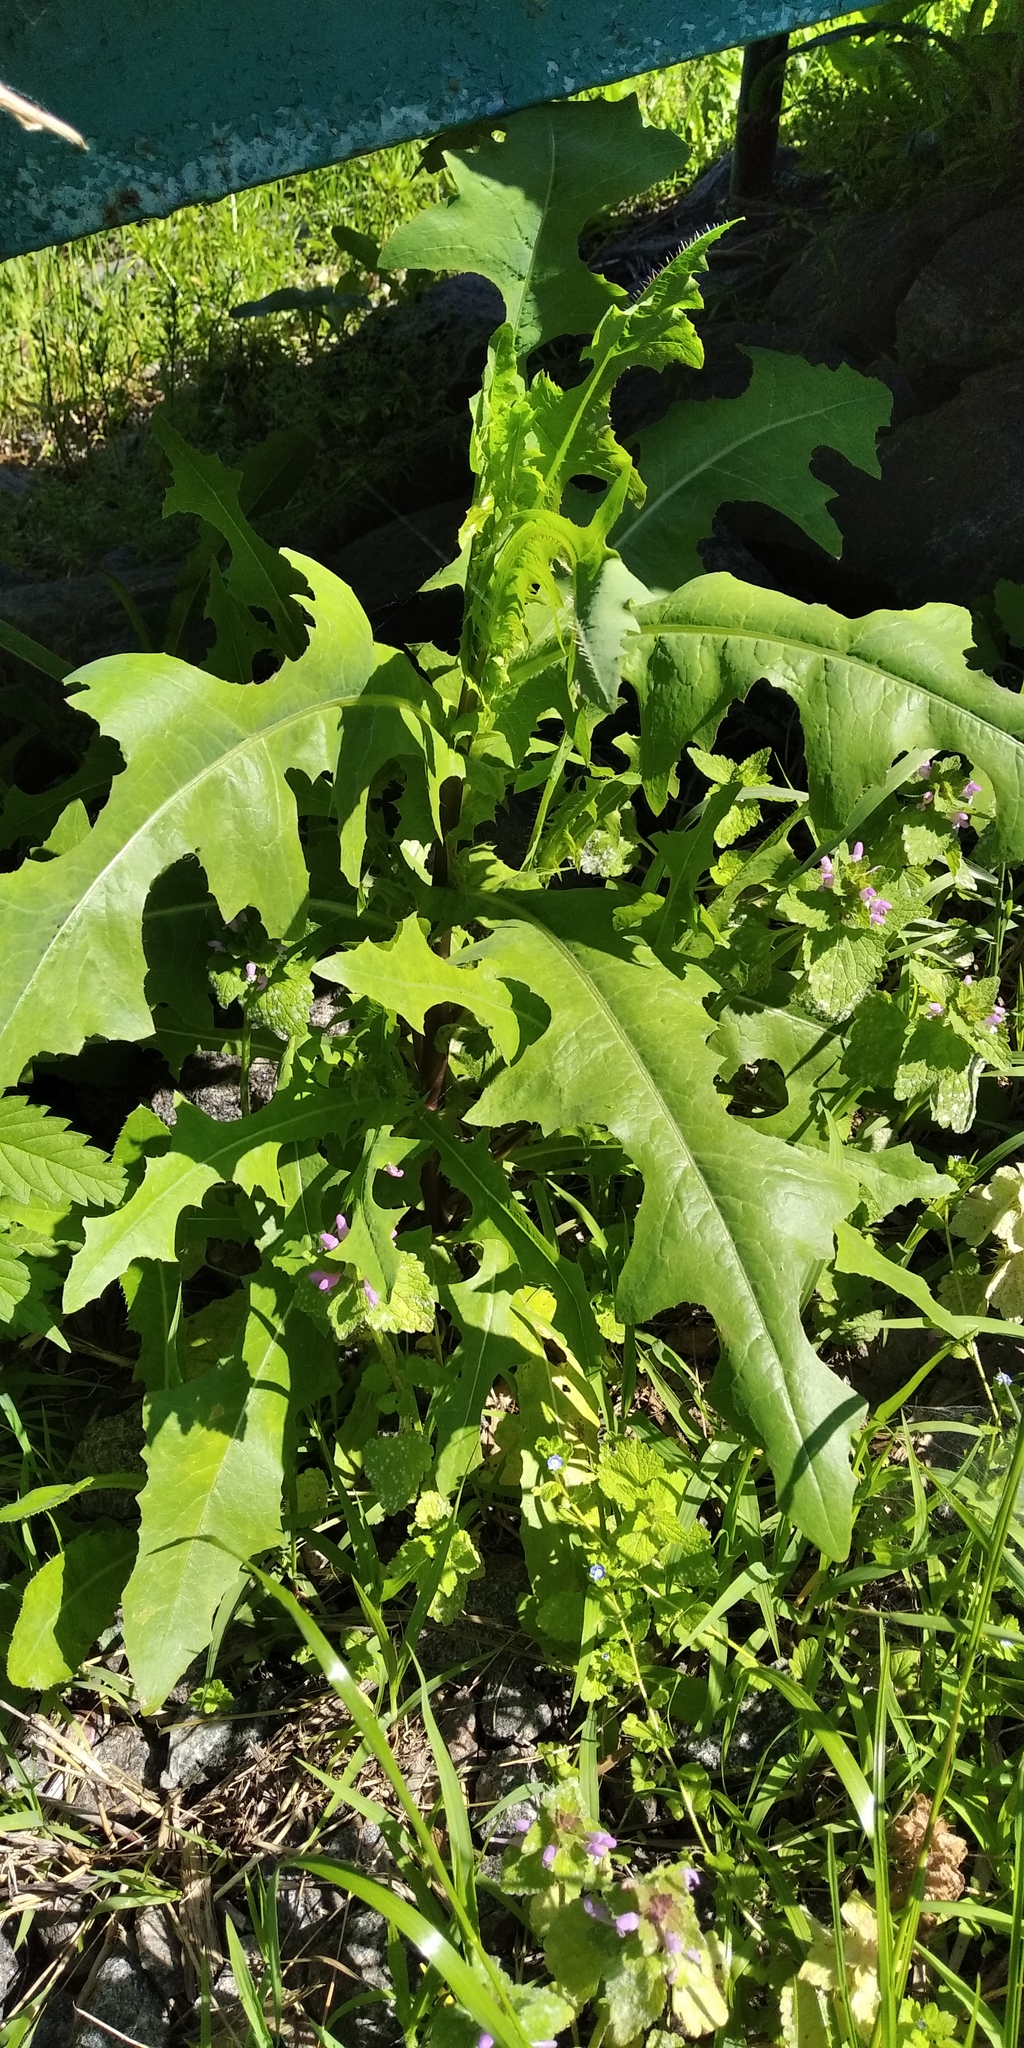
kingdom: Plantae
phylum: Tracheophyta
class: Magnoliopsida
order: Asterales
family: Asteraceae
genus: Lactuca
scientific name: Lactuca serriola
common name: Prickly lettuce
